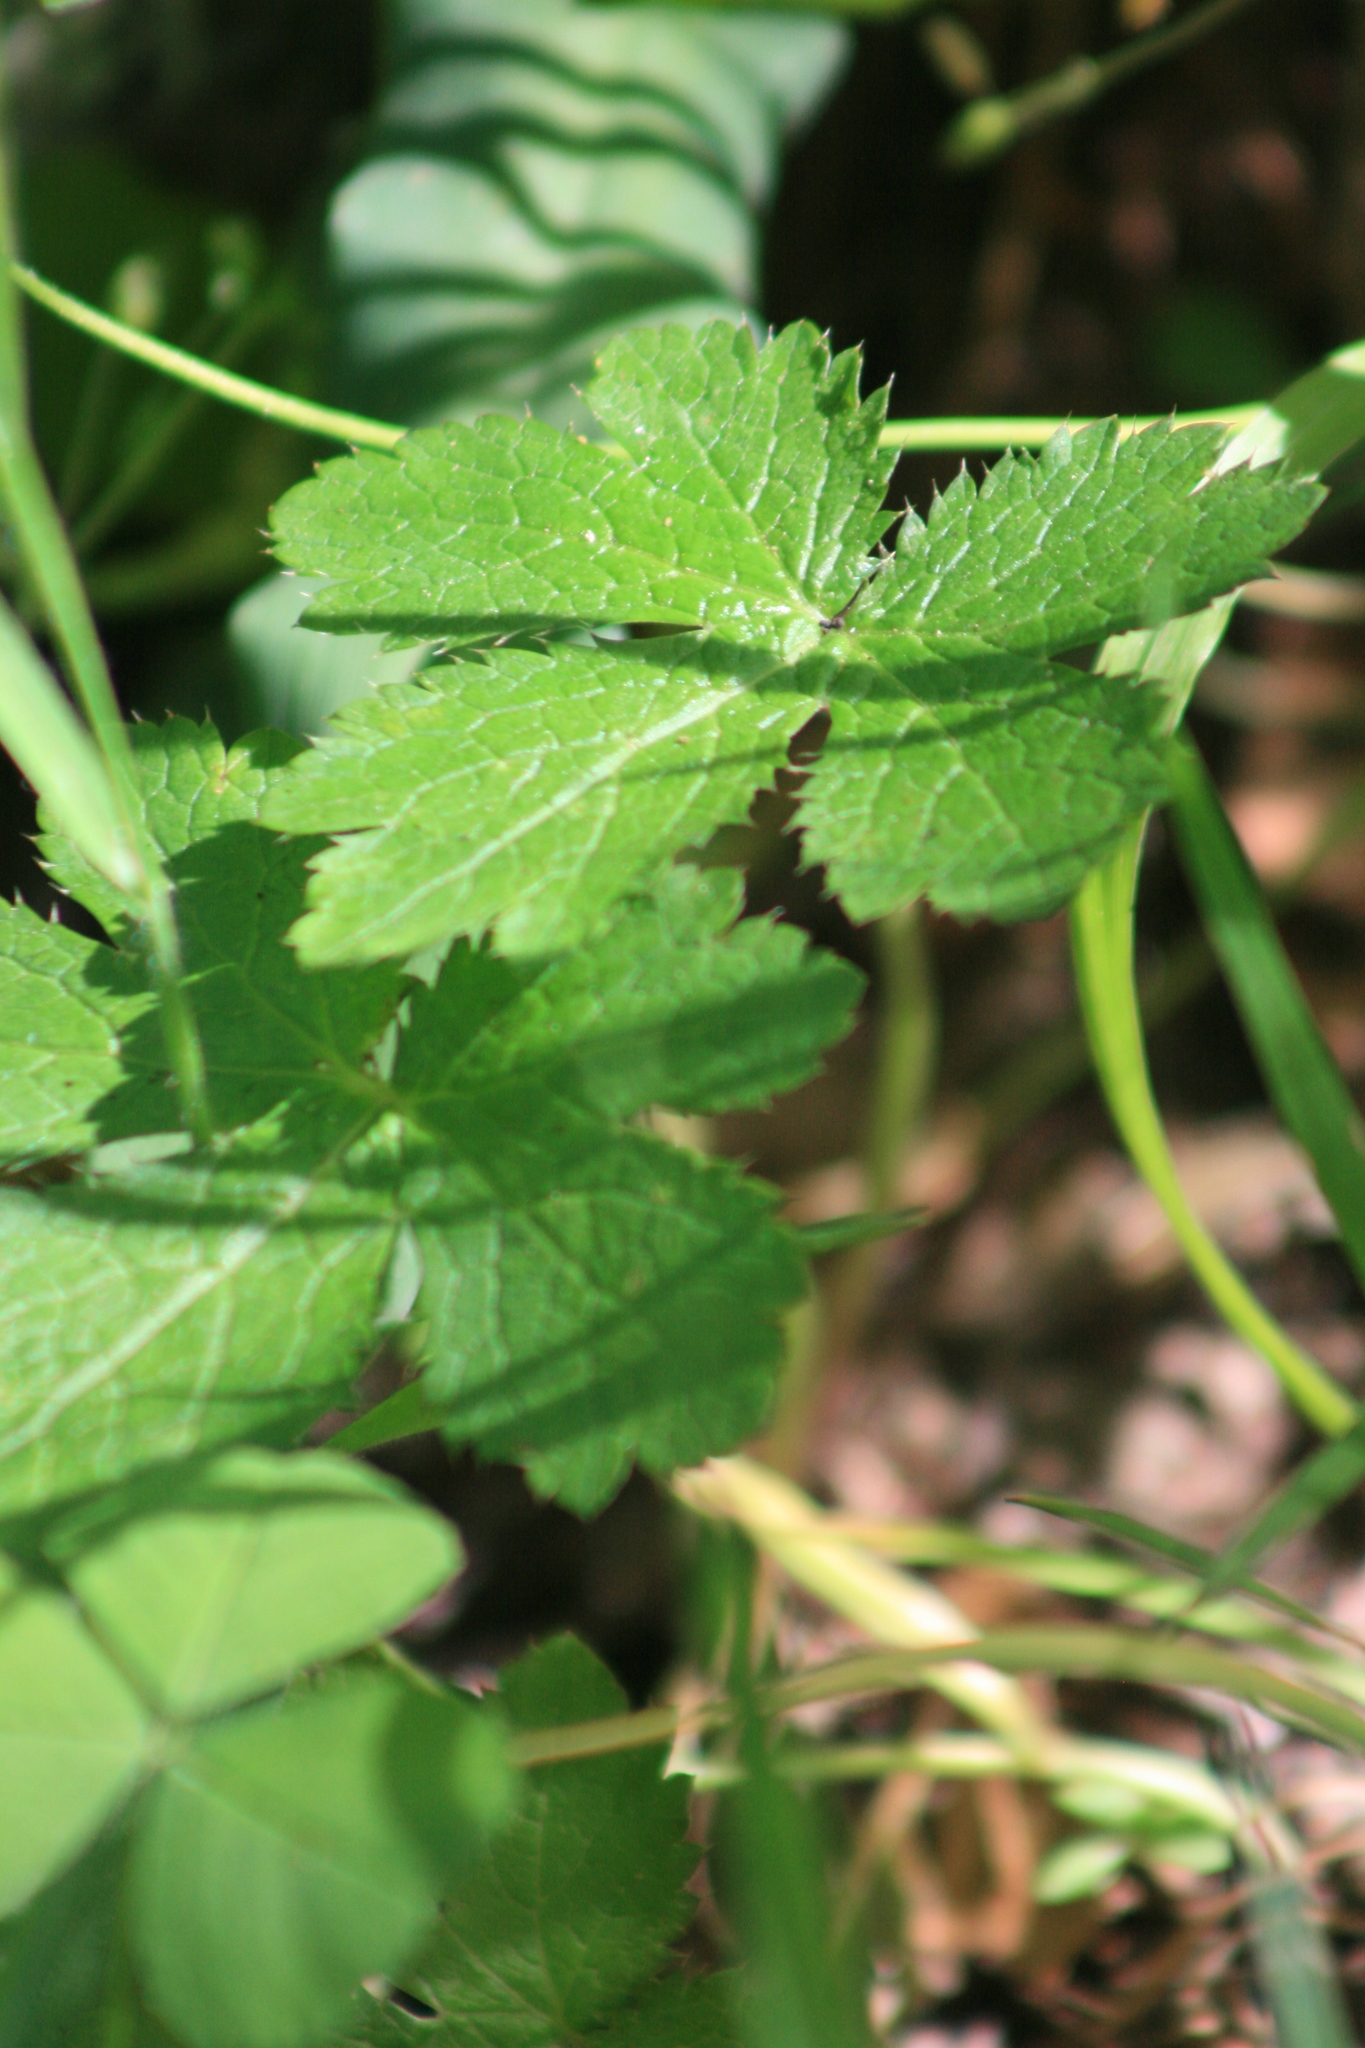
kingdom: Plantae
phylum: Tracheophyta
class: Magnoliopsida
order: Apiales
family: Apiaceae
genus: Sanicula
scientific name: Sanicula crassicaulis
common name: Western snakeroot
